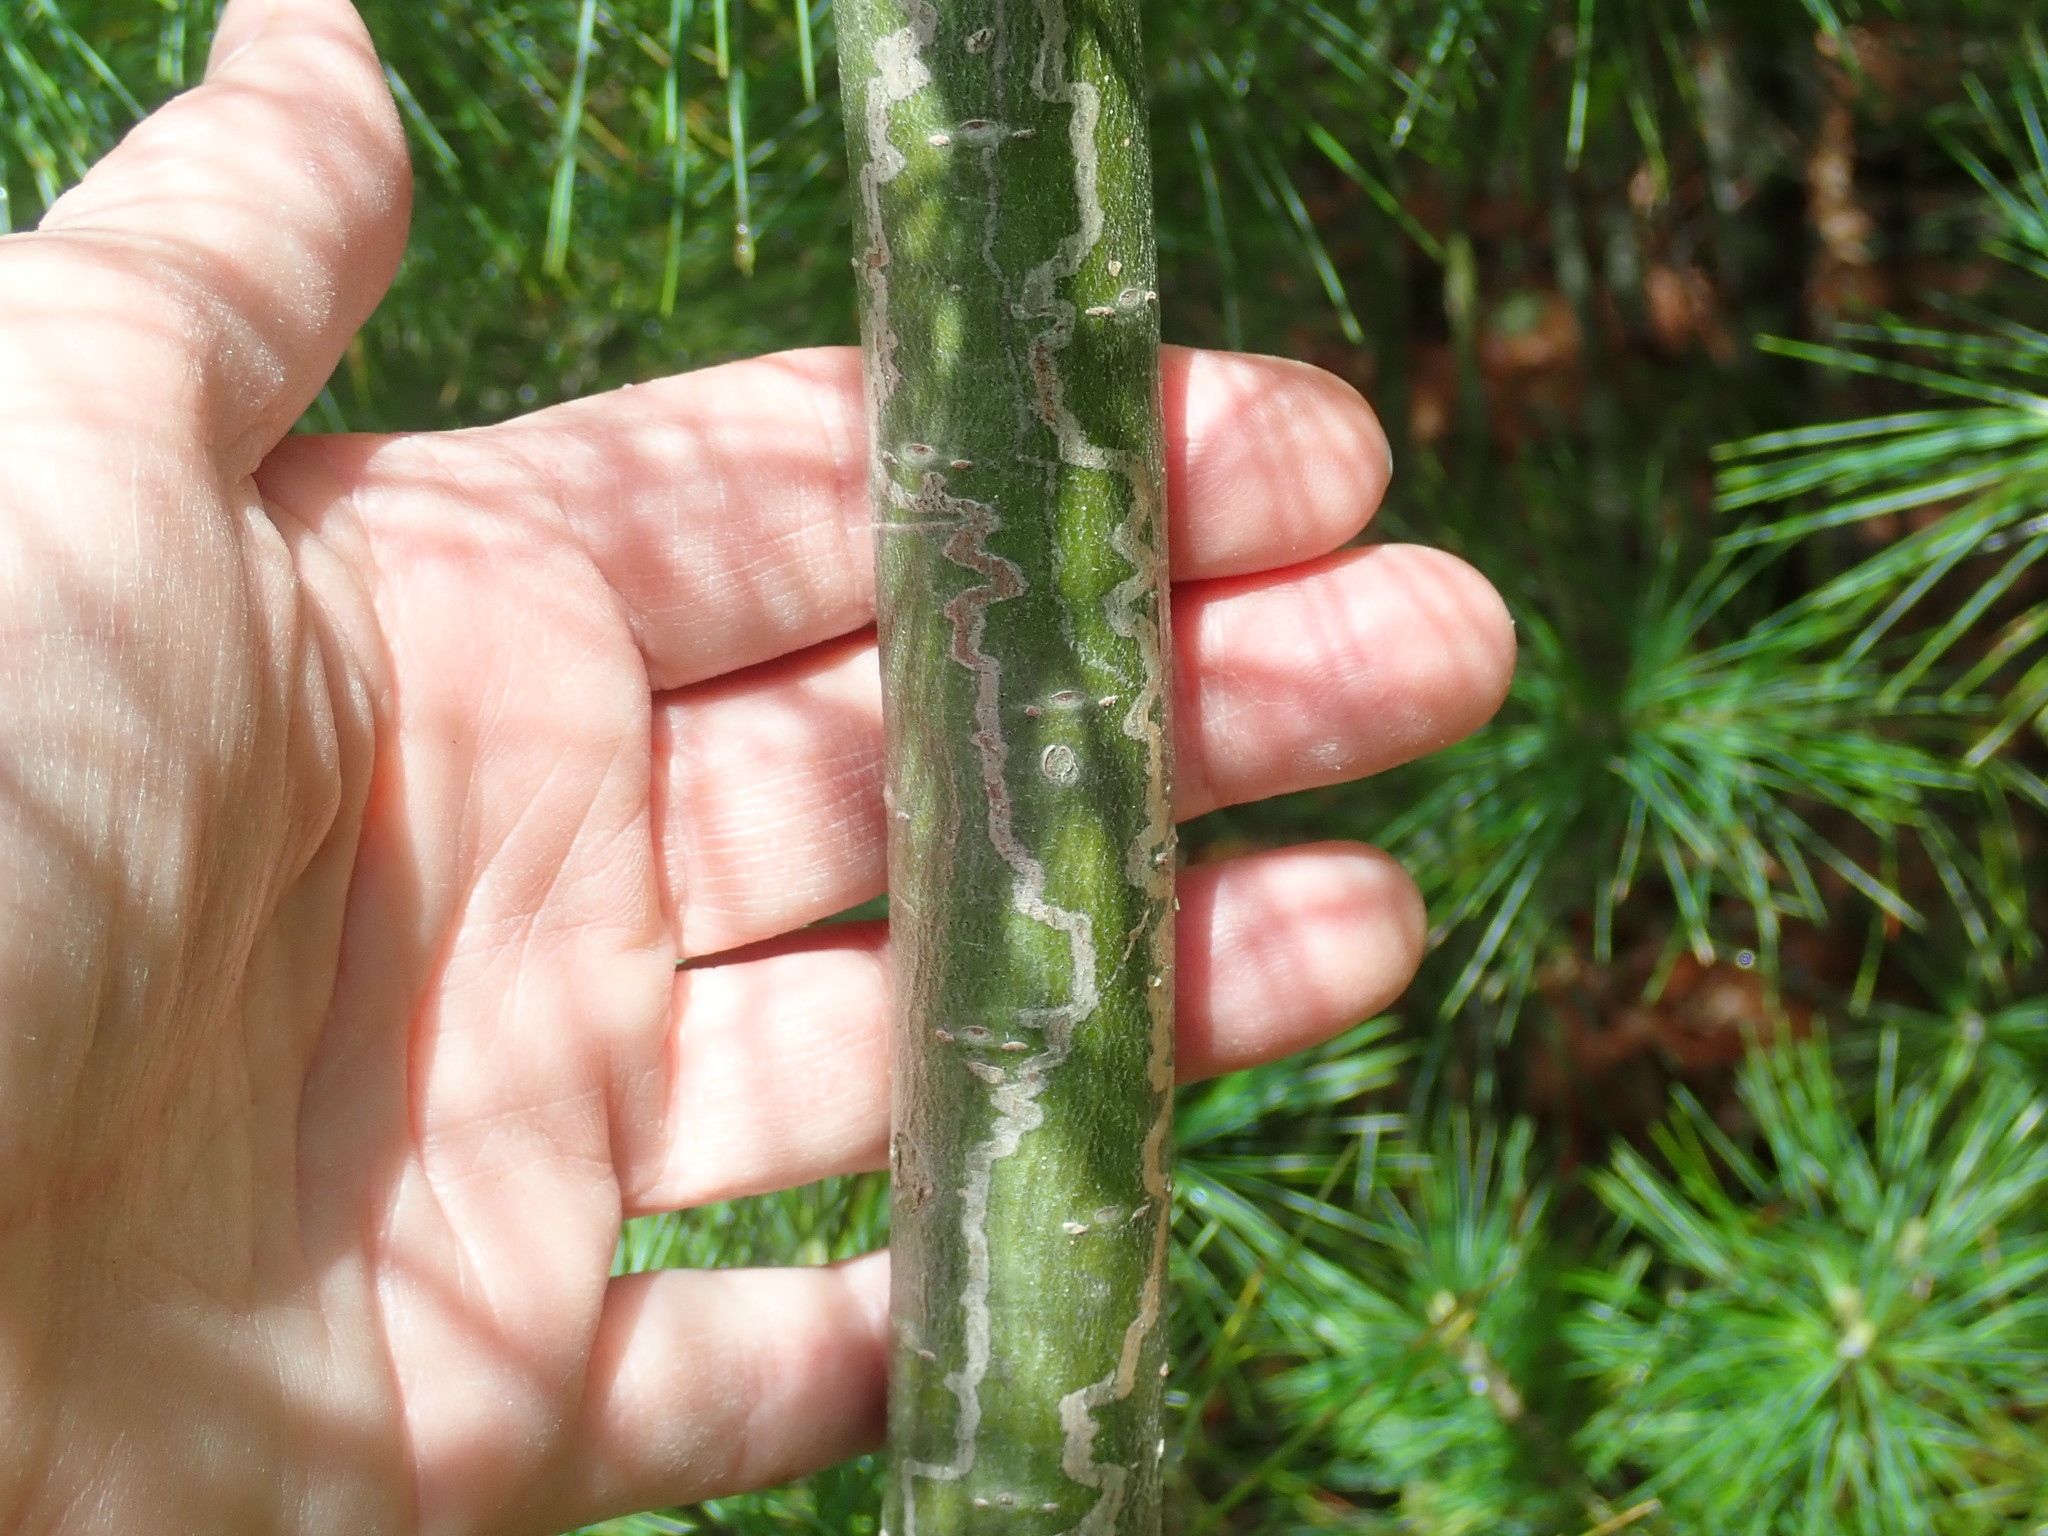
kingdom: Animalia
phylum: Arthropoda
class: Insecta
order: Lepidoptera
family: Gracillariidae
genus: Marmara
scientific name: Marmara fasciella
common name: White pine barkminer moth
